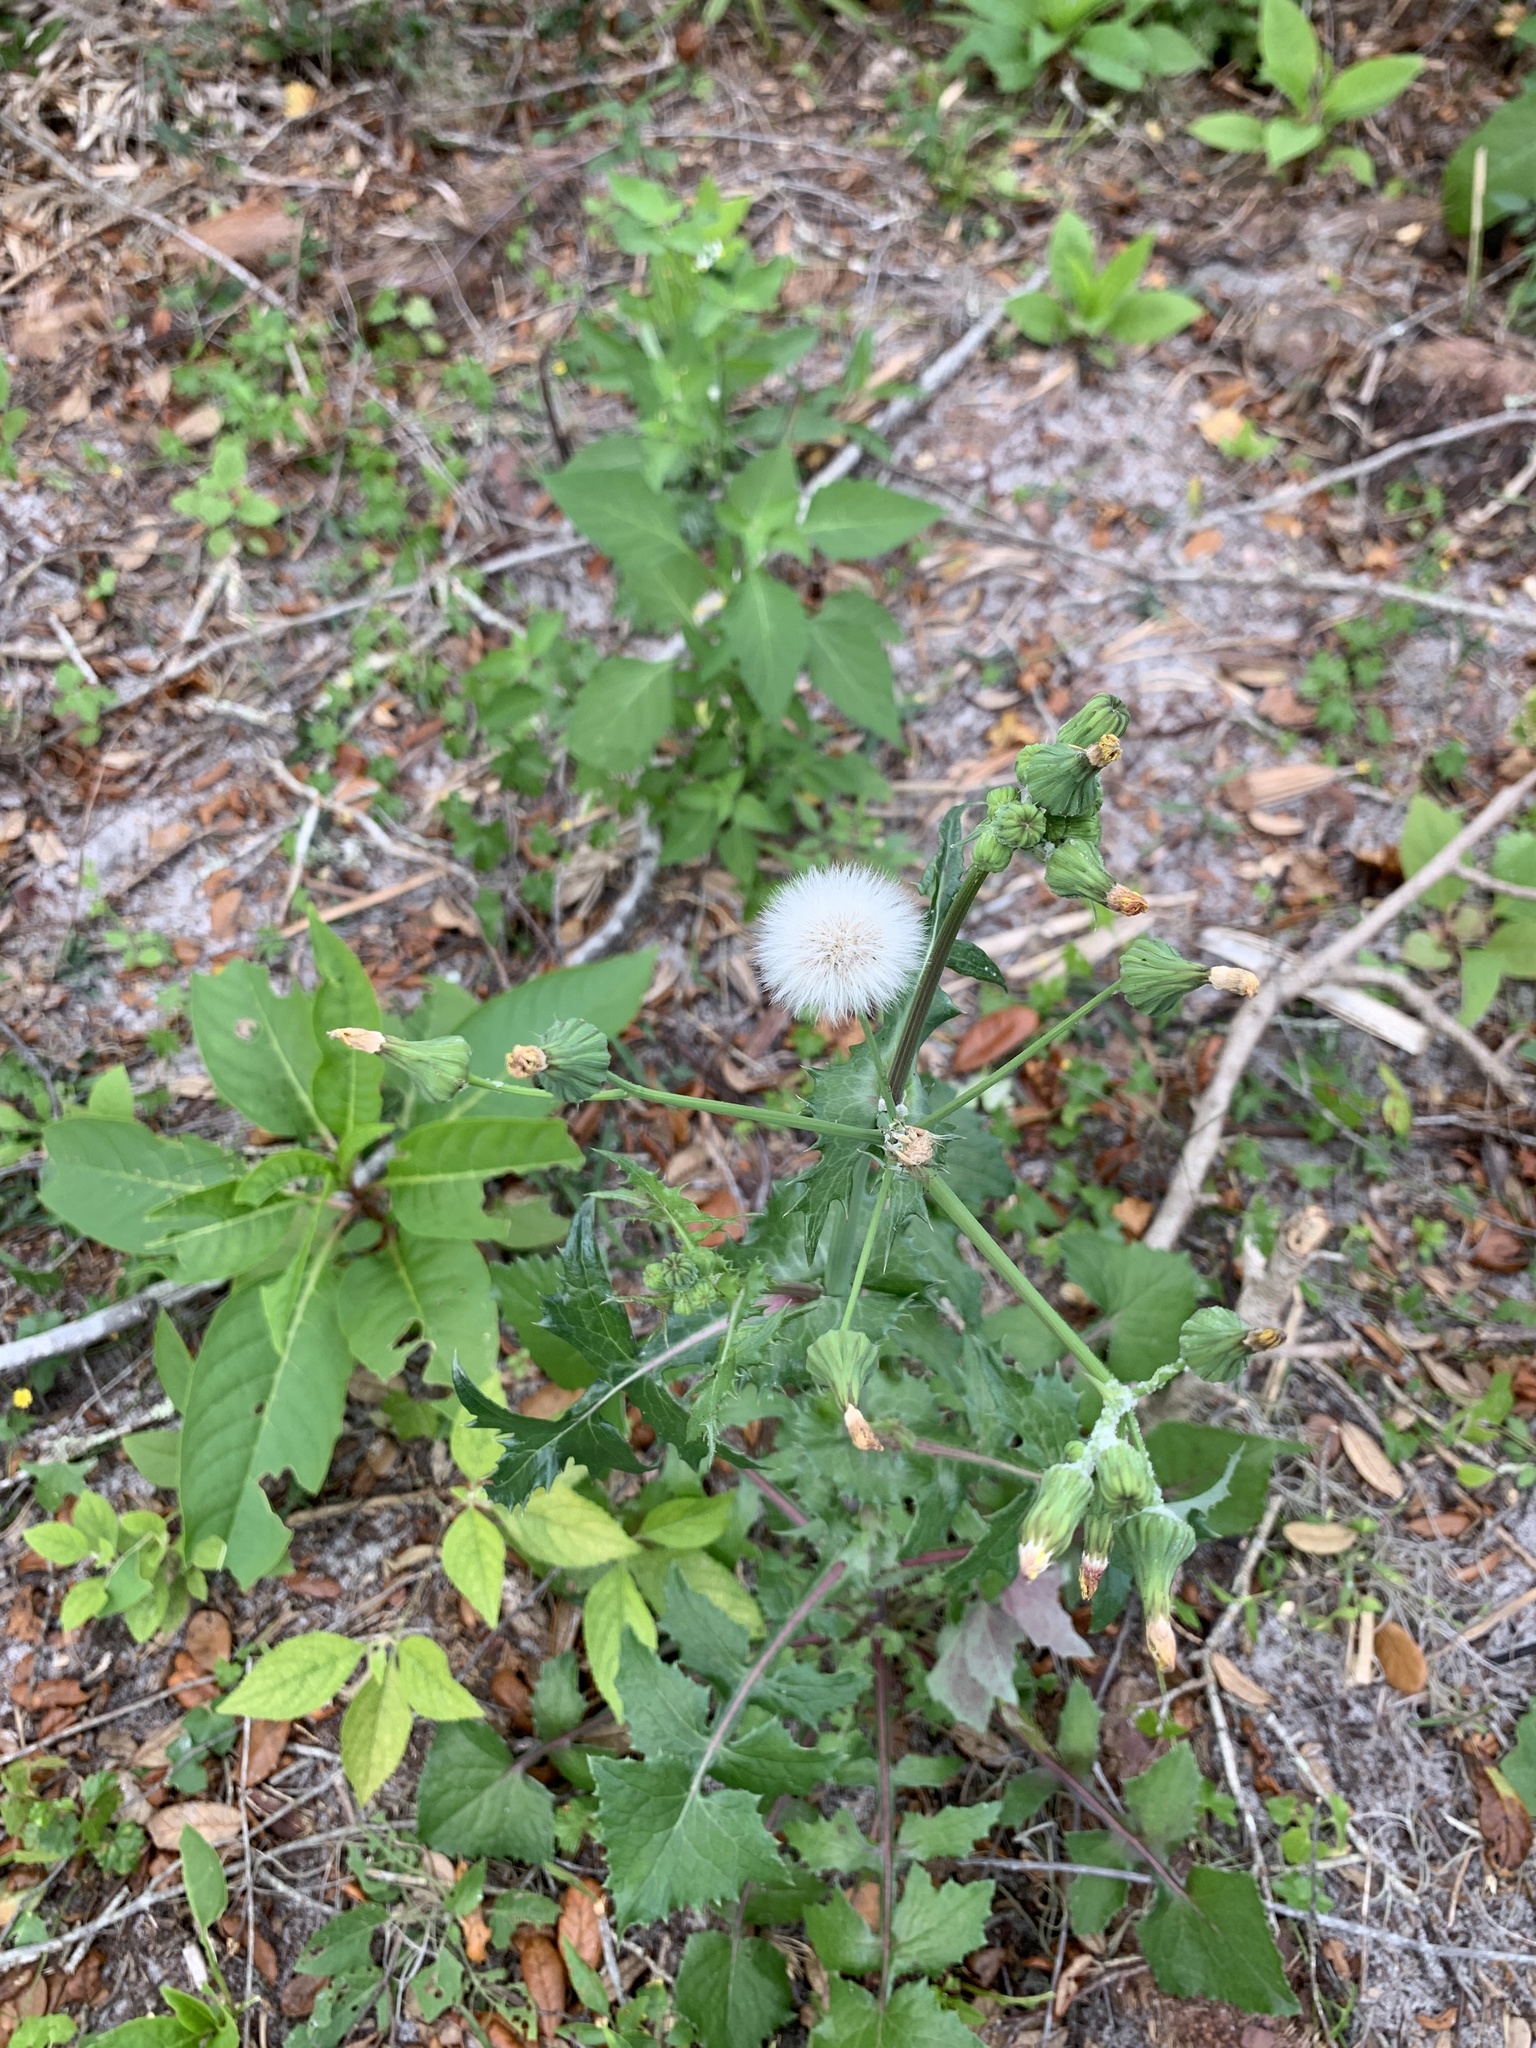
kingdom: Plantae
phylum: Tracheophyta
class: Magnoliopsida
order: Asterales
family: Asteraceae
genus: Sonchus
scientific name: Sonchus oleraceus
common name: Common sowthistle
